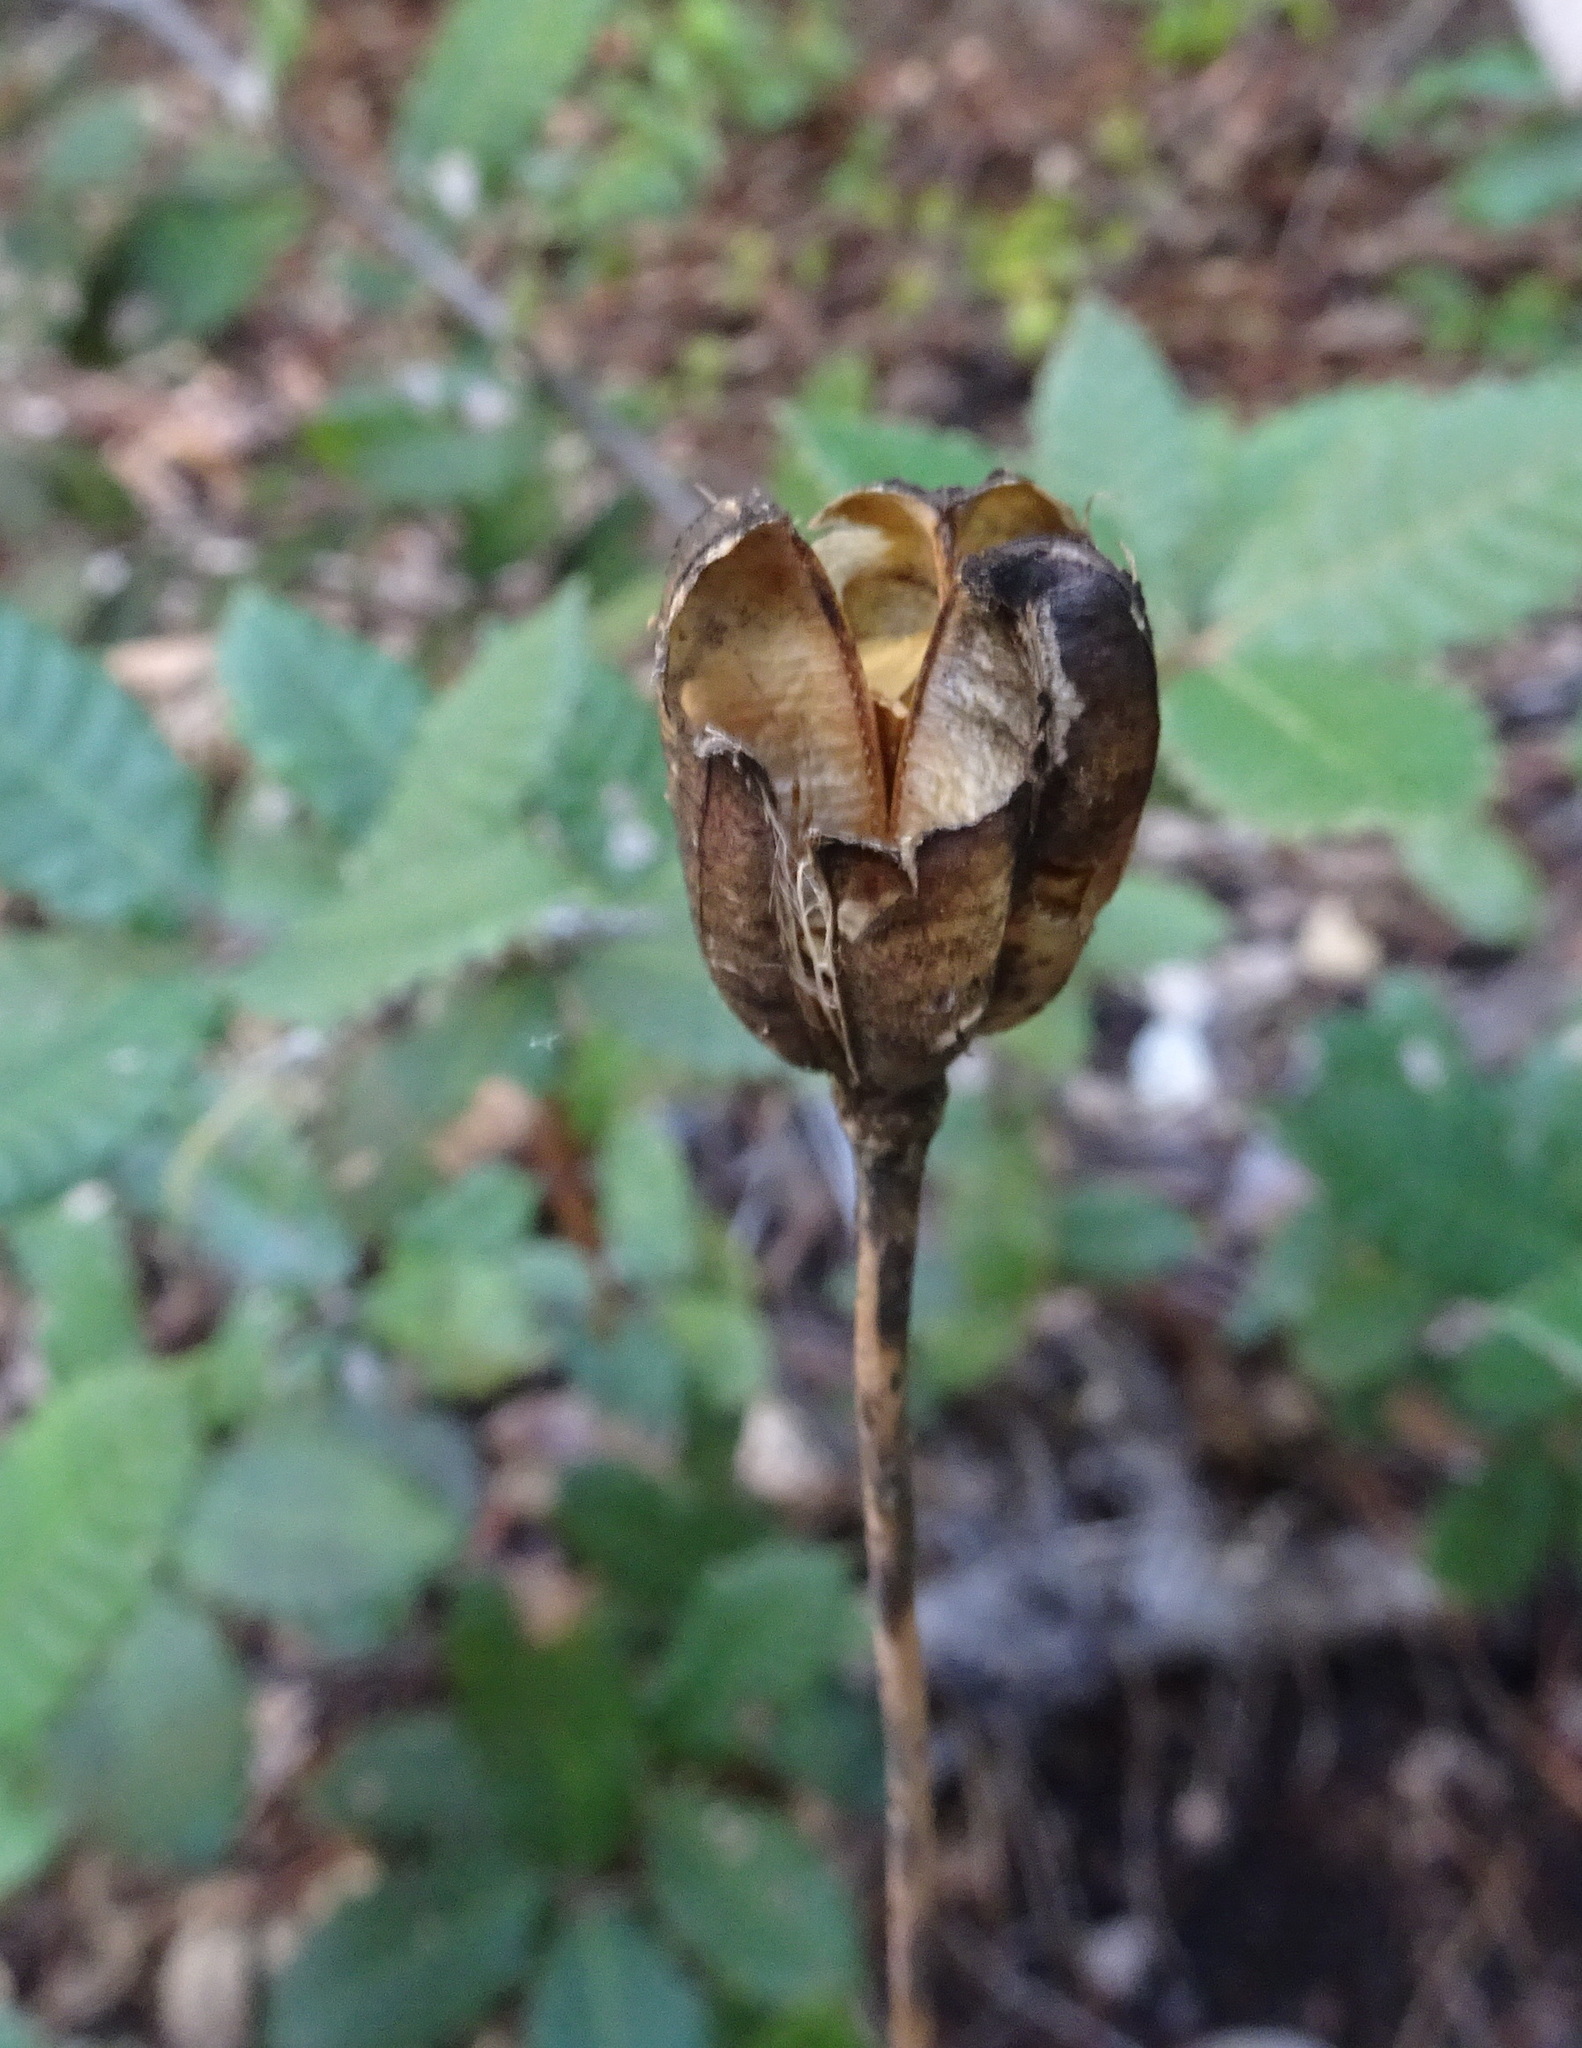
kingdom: Plantae
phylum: Tracheophyta
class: Liliopsida
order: Liliales
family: Liliaceae
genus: Lilium
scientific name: Lilium maritimum
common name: Coastal lily
